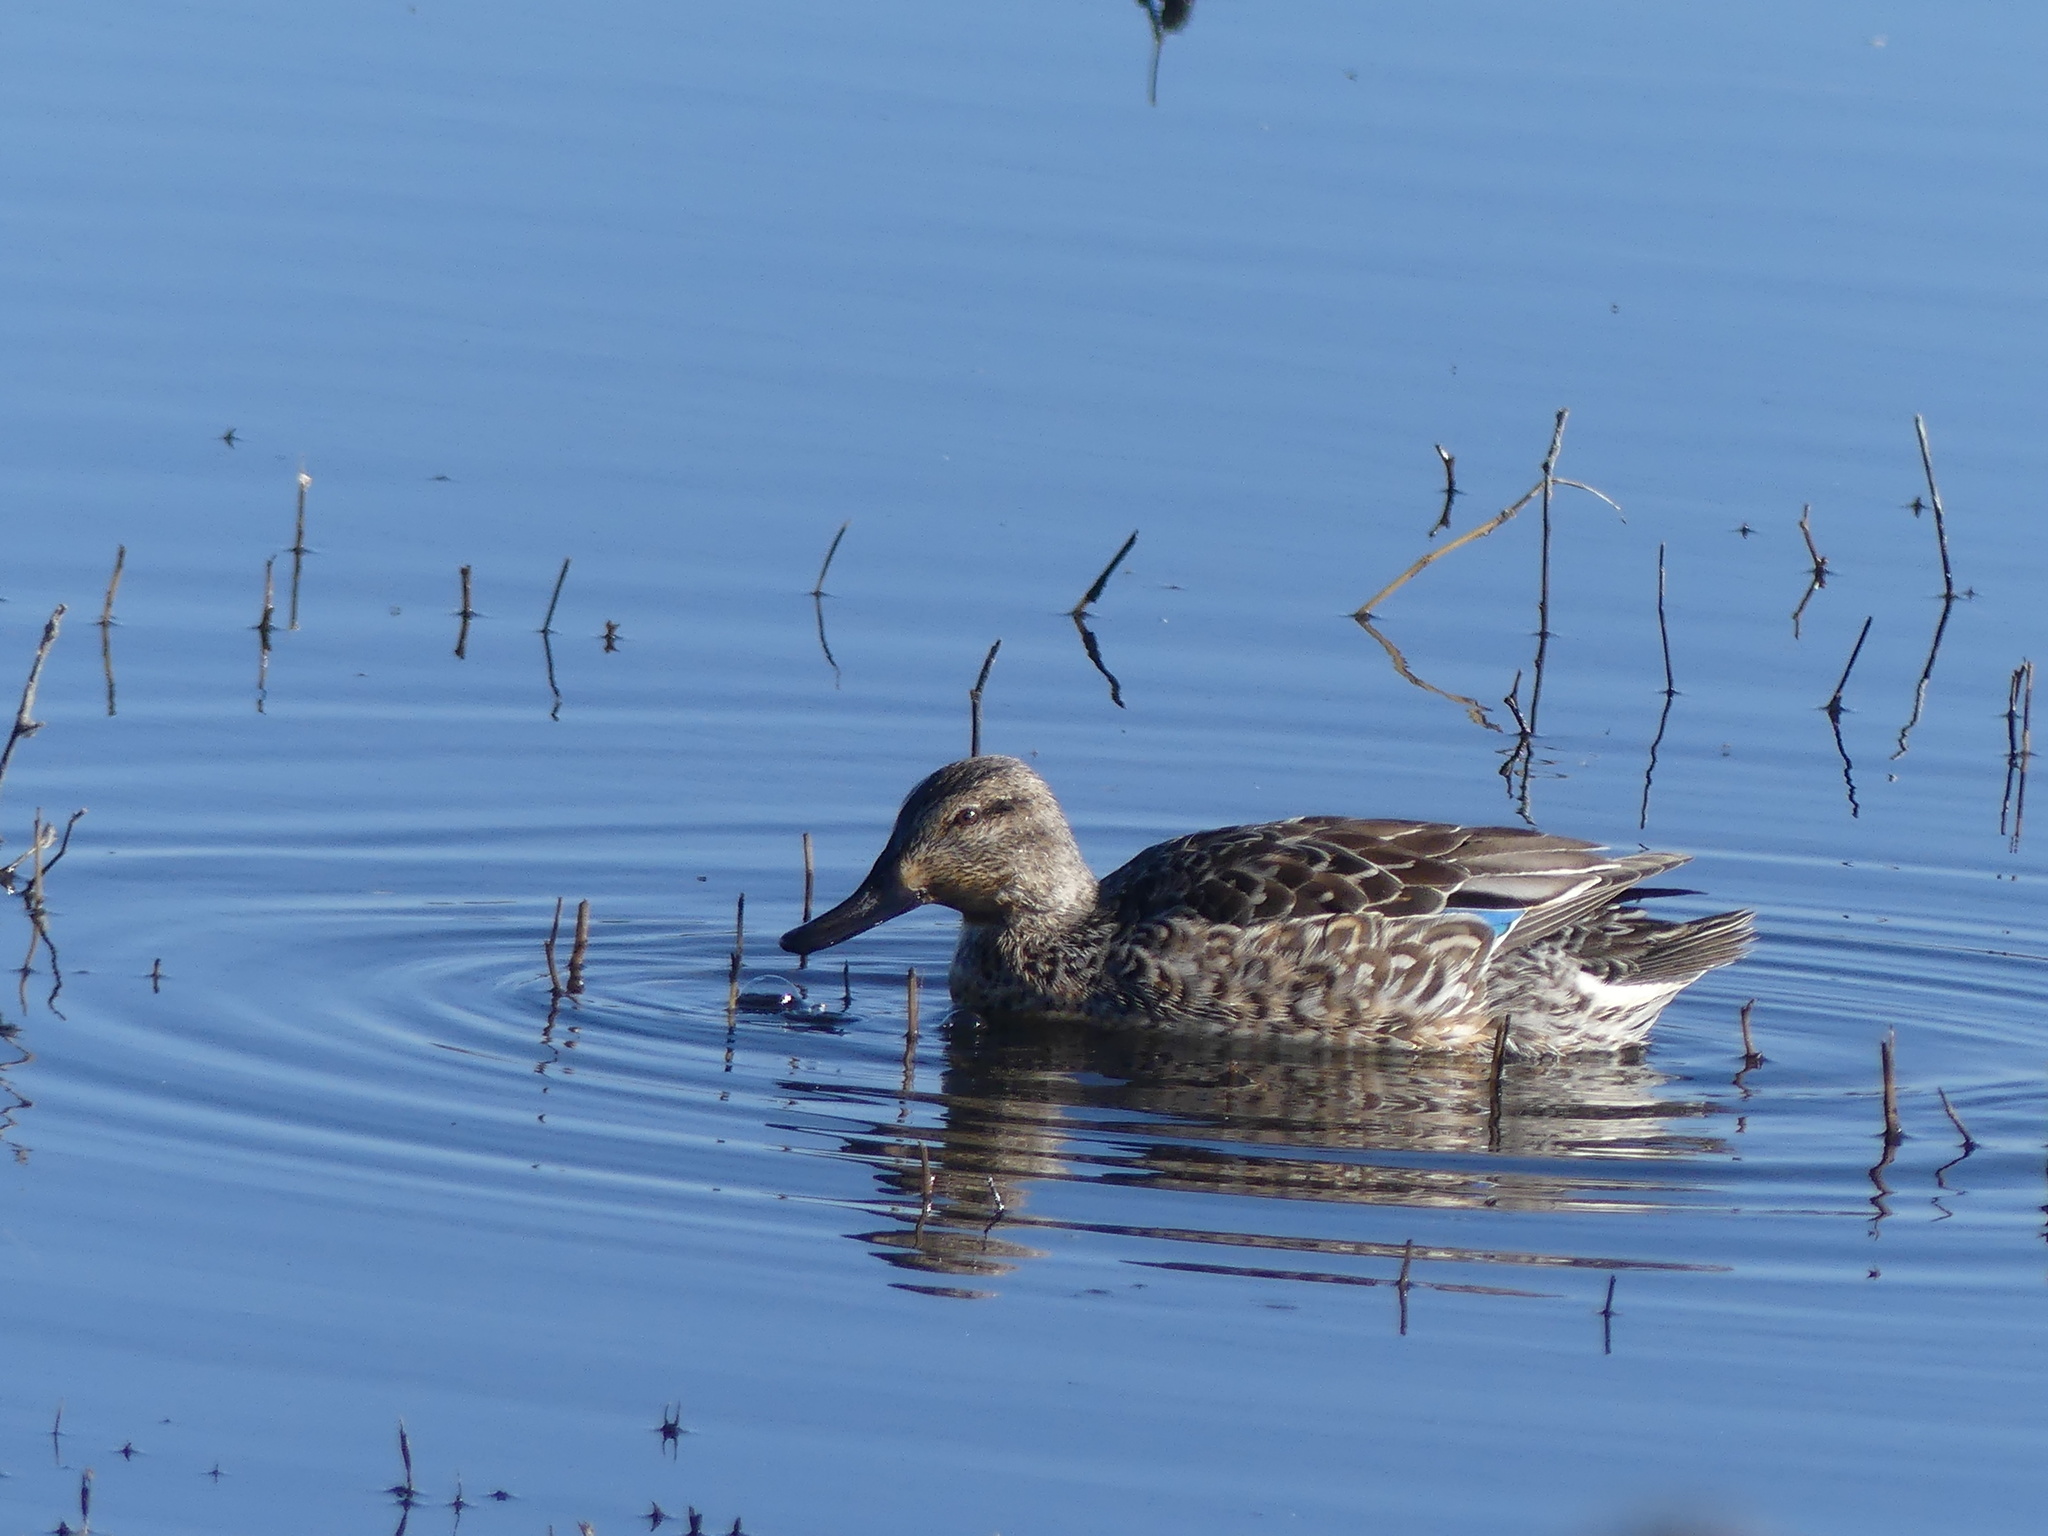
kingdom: Animalia
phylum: Chordata
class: Aves
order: Anseriformes
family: Anatidae
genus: Anas
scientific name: Anas crecca
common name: Eurasian teal
